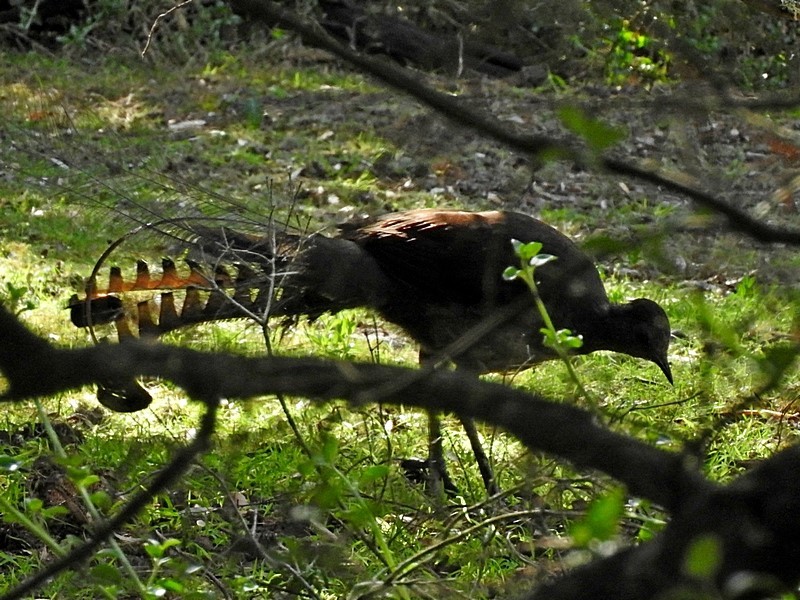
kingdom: Animalia
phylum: Chordata
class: Aves
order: Passeriformes
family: Menuridae
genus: Menura
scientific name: Menura novaehollandiae
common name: Superb lyrebird
